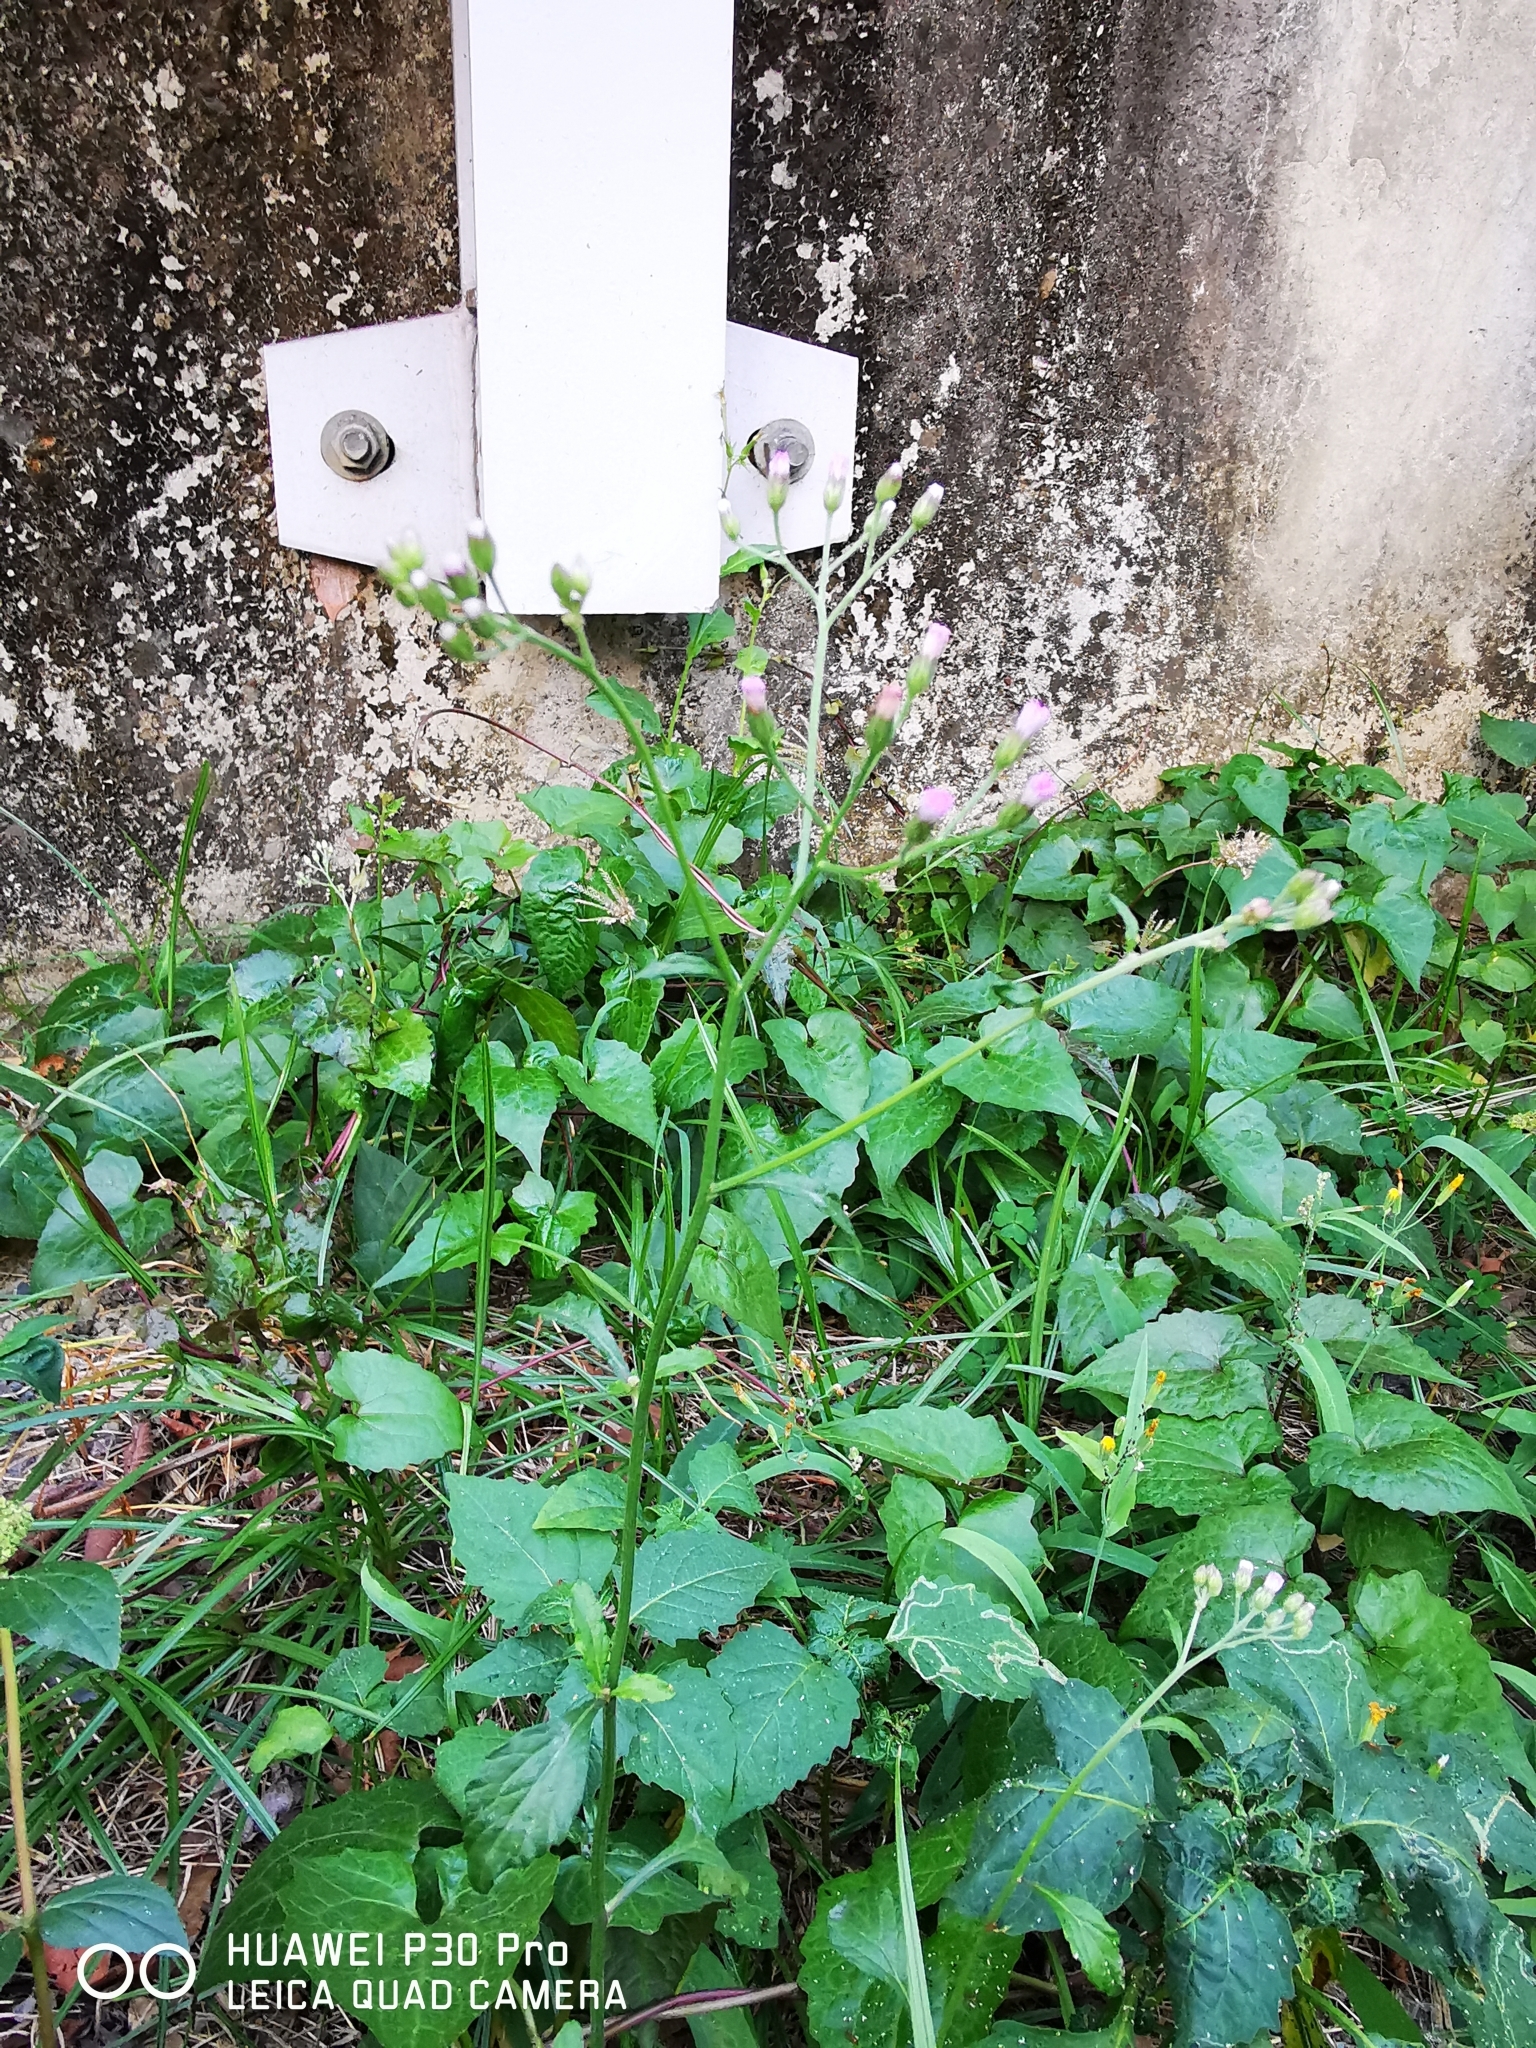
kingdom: Plantae
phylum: Tracheophyta
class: Magnoliopsida
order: Asterales
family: Asteraceae
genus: Cyanthillium
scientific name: Cyanthillium cinereum
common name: Little ironweed
